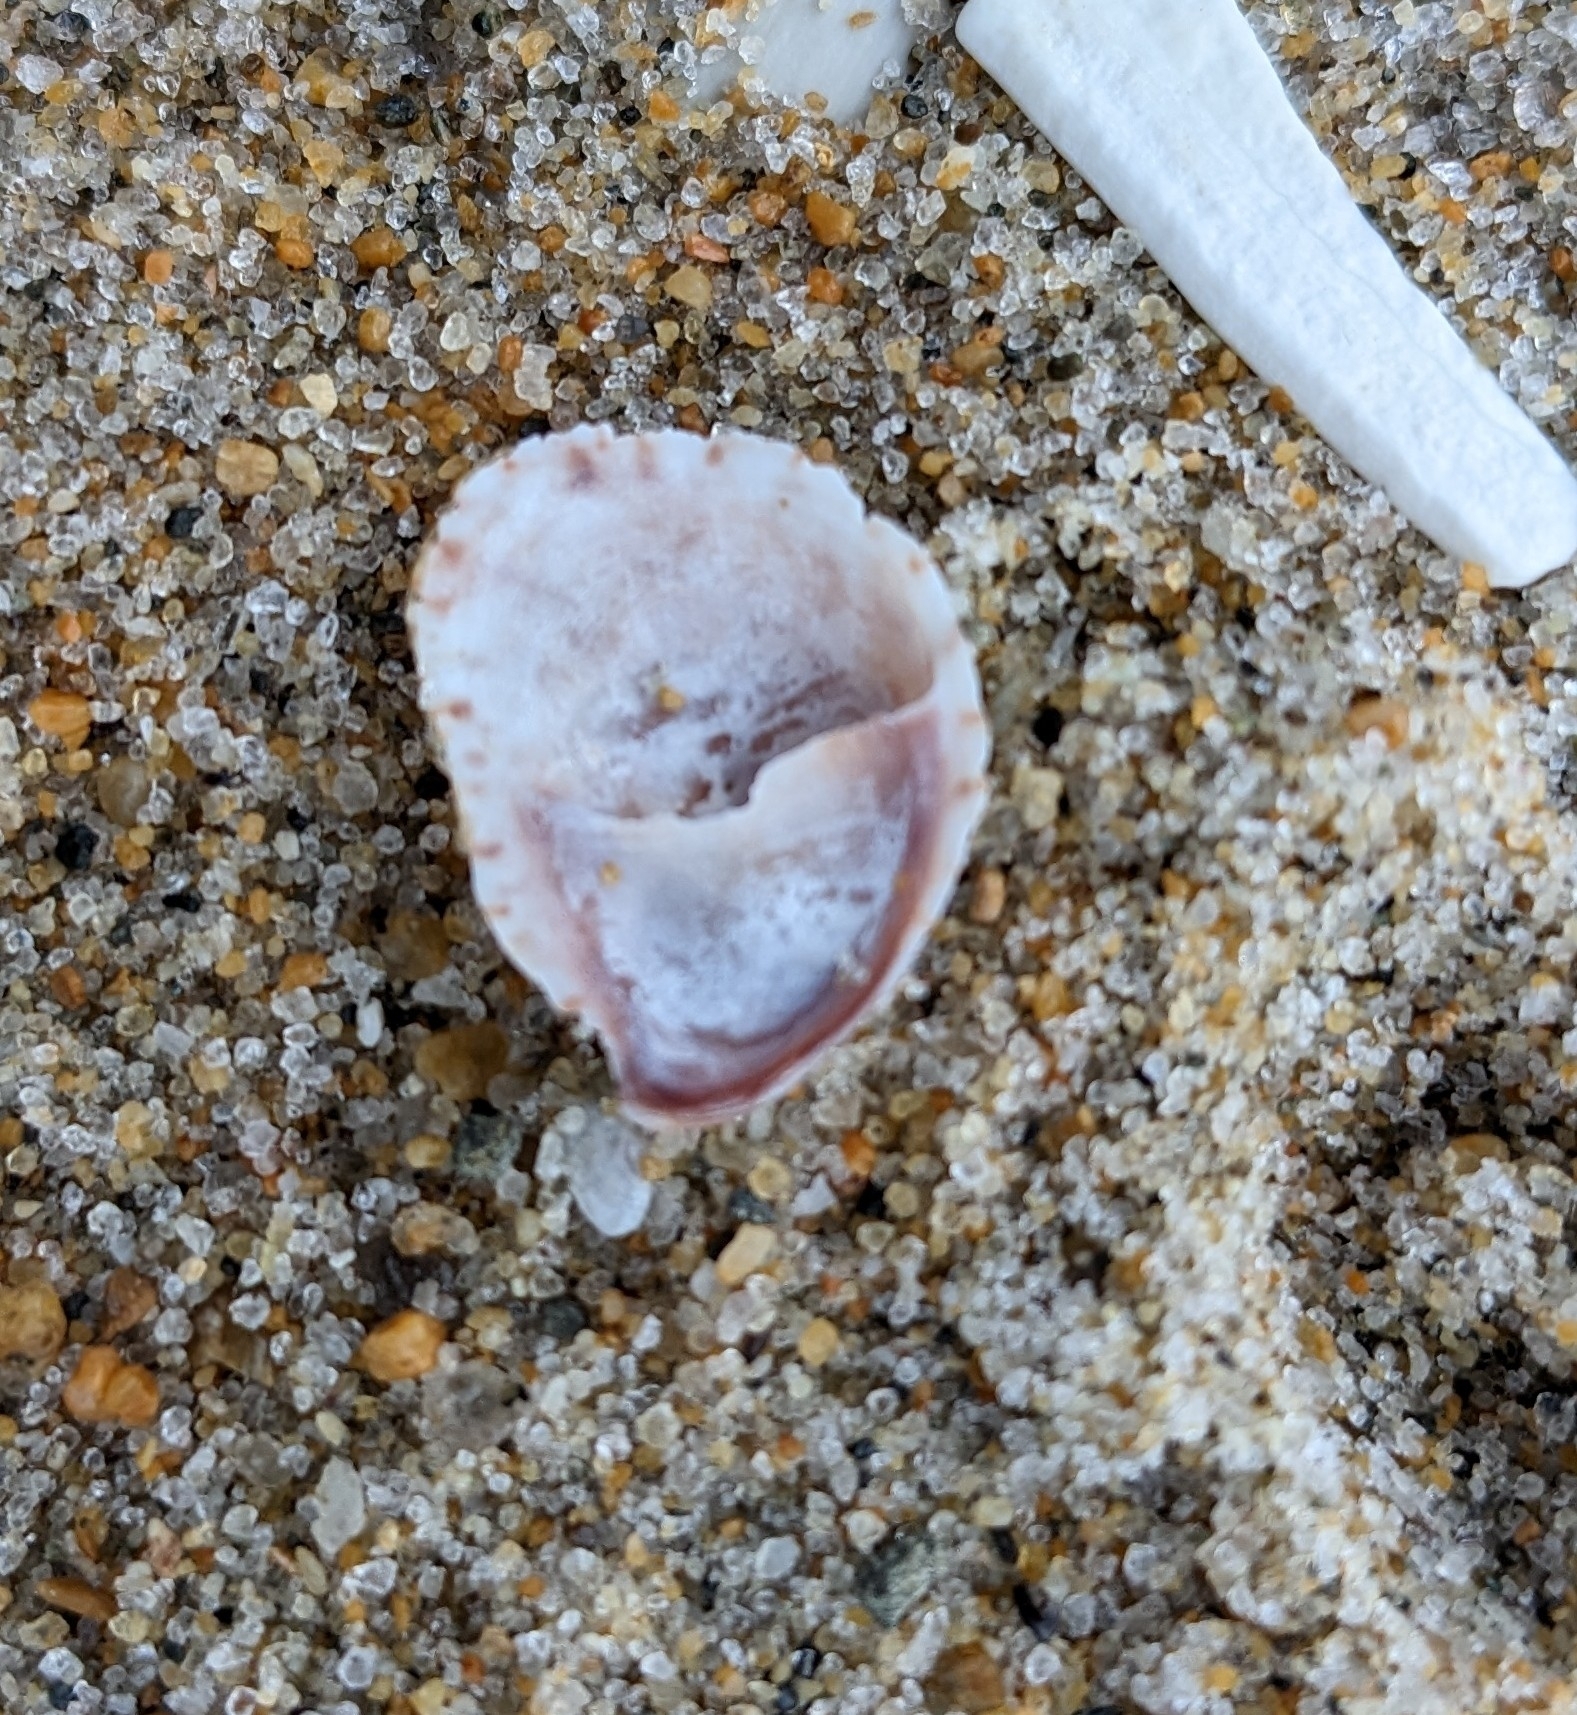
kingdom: Animalia
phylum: Mollusca
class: Gastropoda
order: Littorinimorpha
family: Calyptraeidae
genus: Crepidula
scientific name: Crepidula fornicata
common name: Slipper limpet
